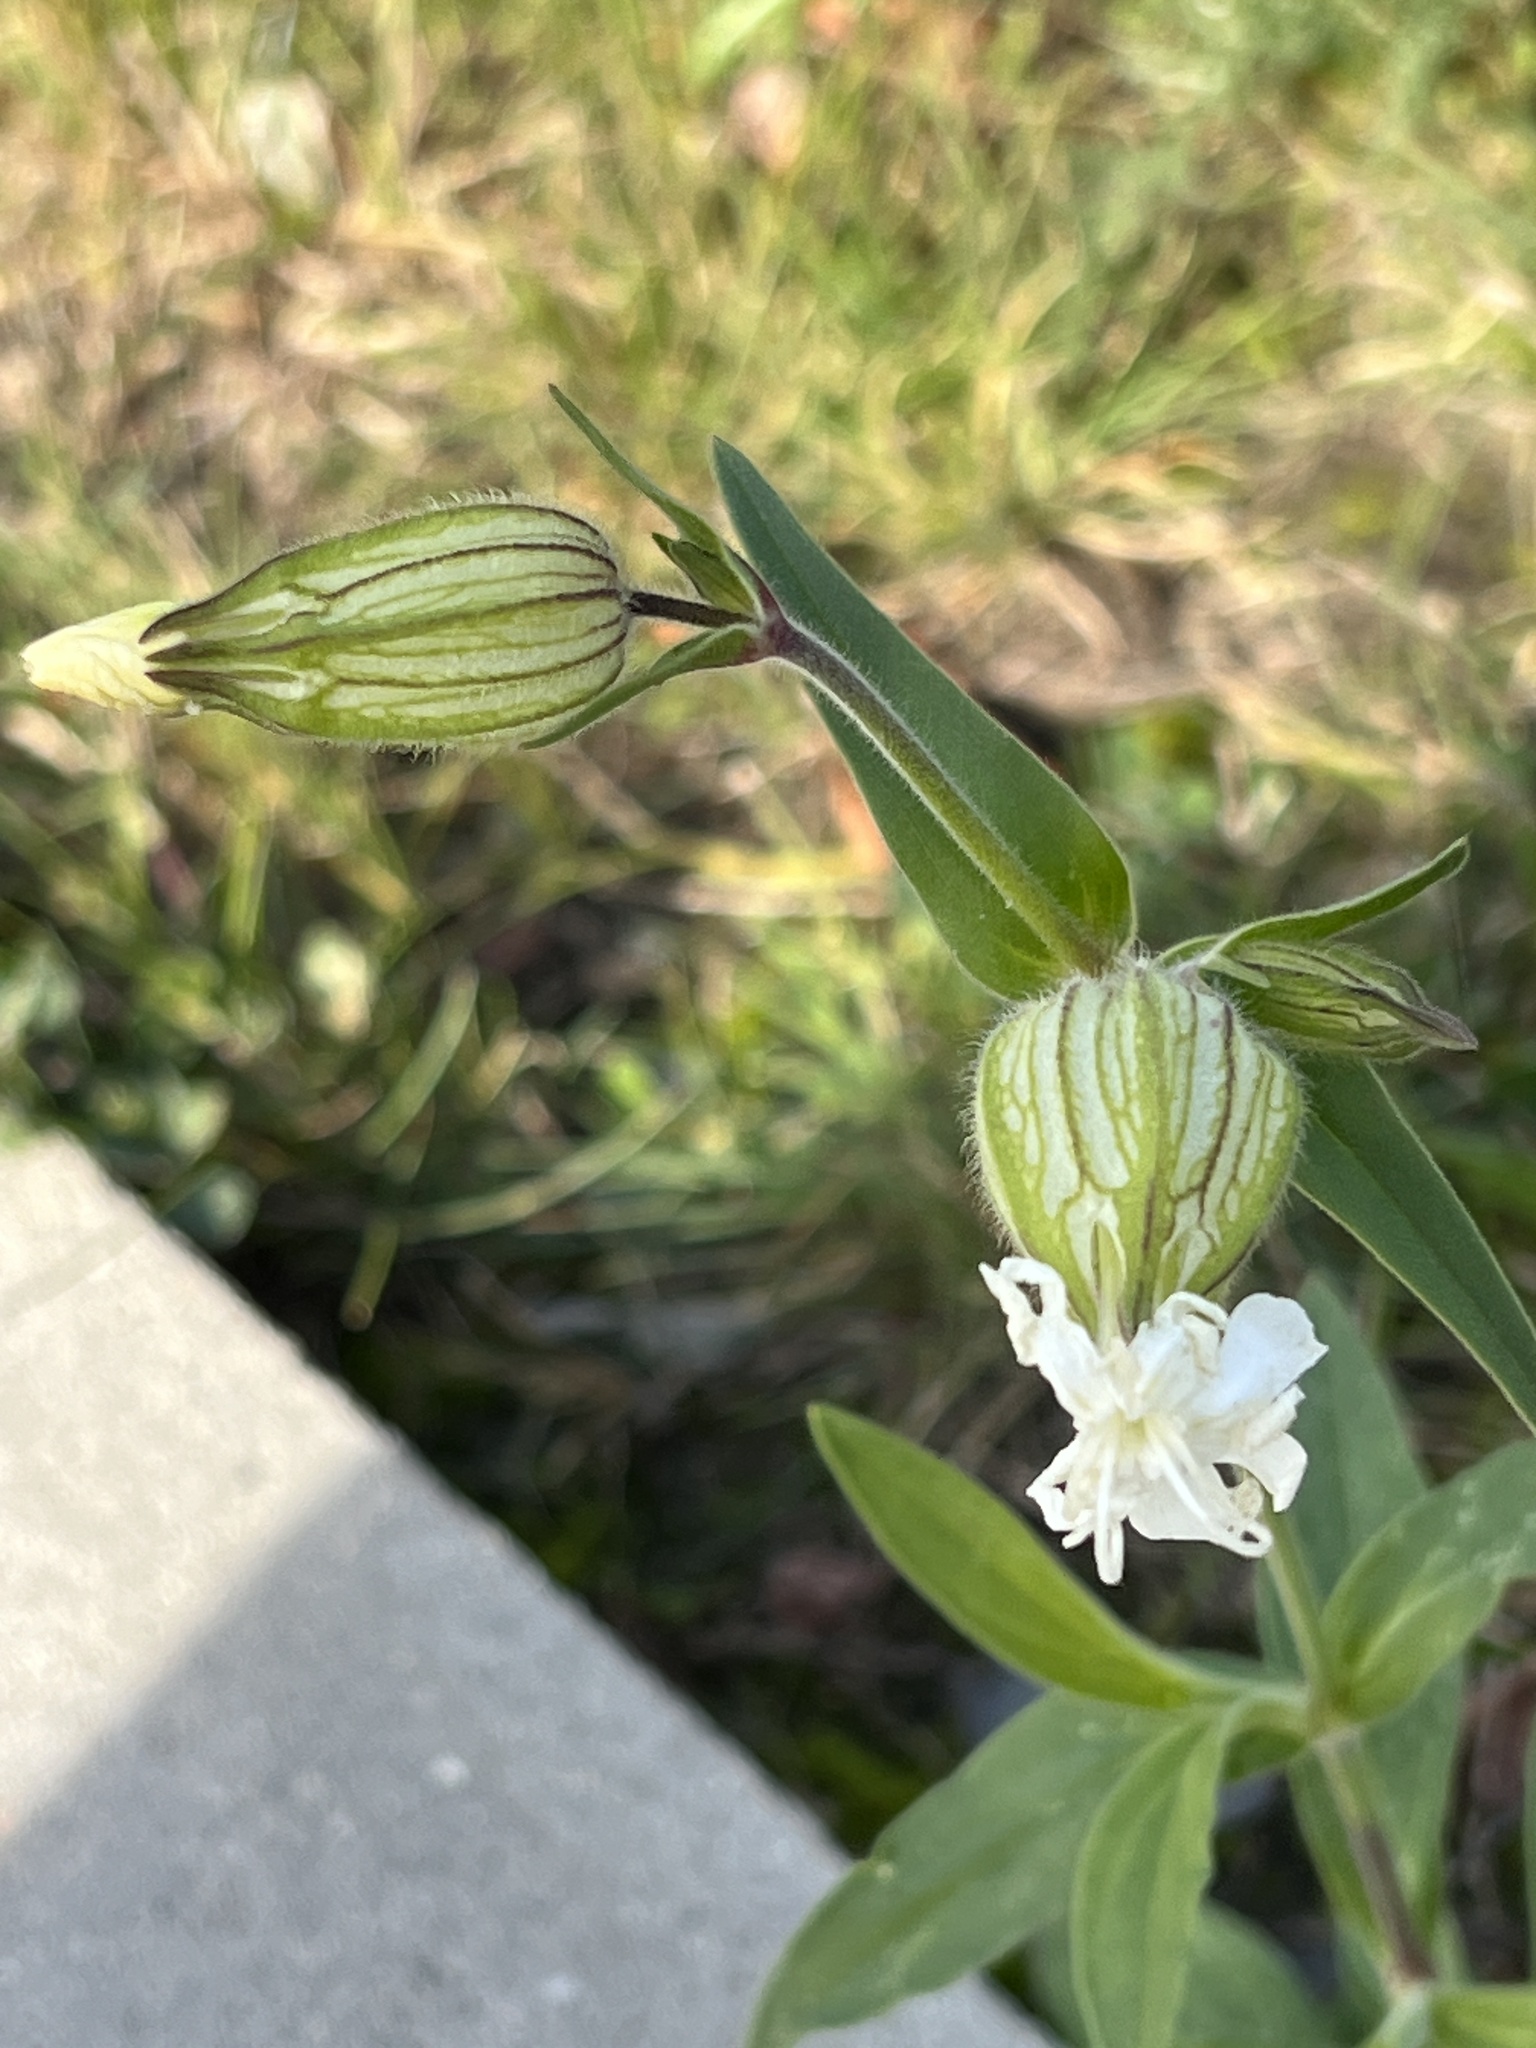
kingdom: Plantae
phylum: Tracheophyta
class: Magnoliopsida
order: Caryophyllales
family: Caryophyllaceae
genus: Silene
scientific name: Silene latifolia
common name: White campion
